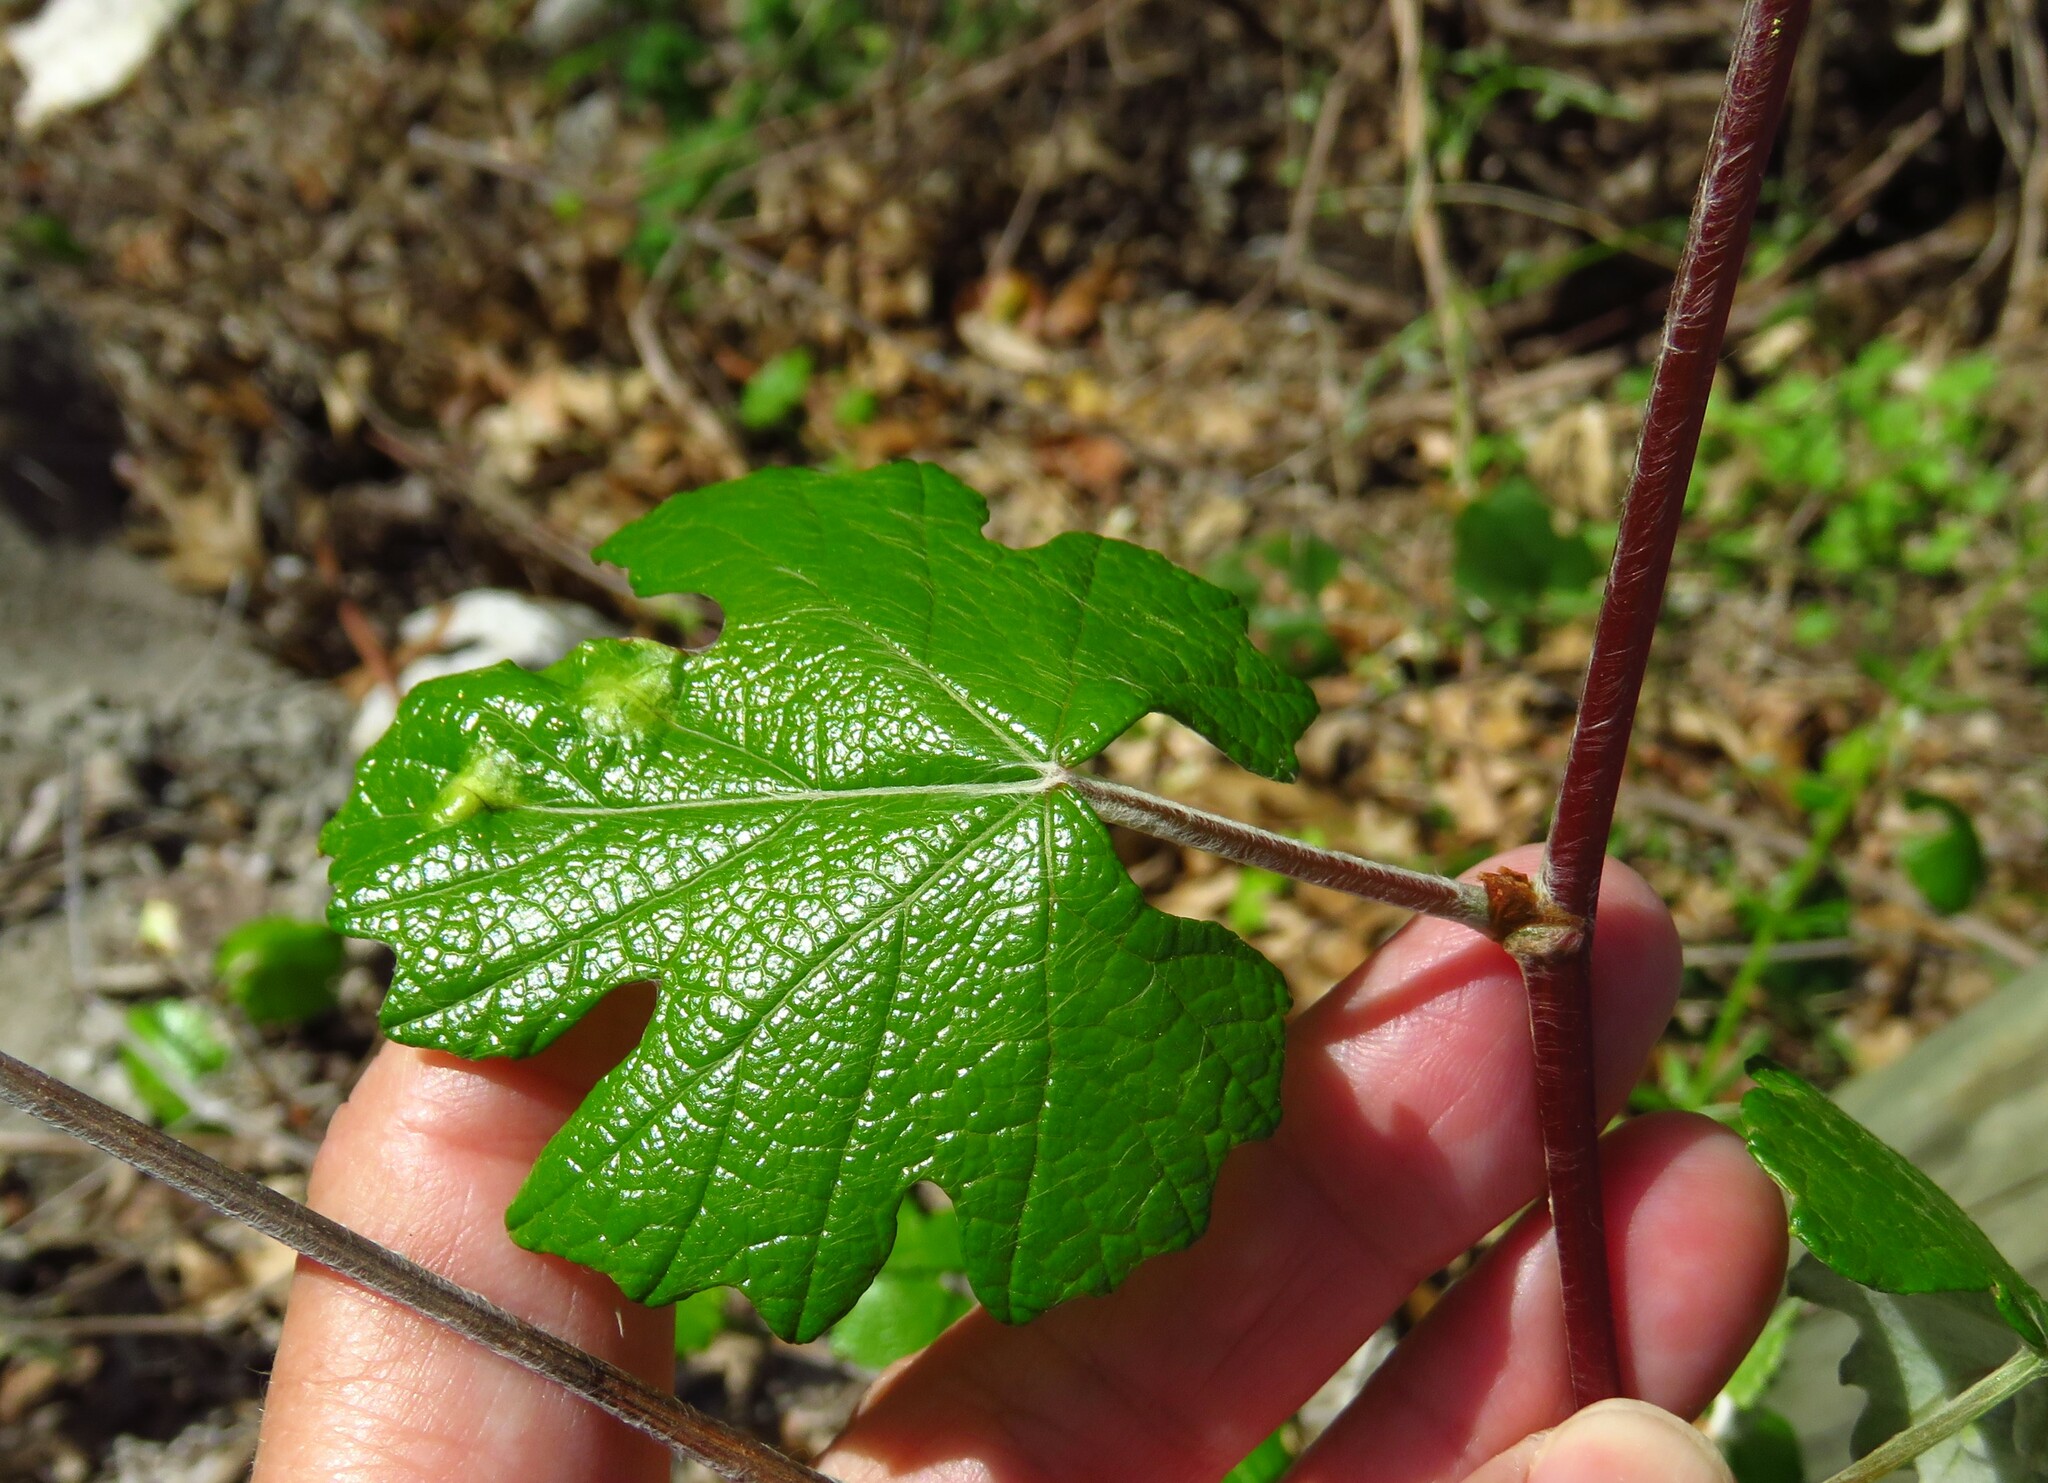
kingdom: Plantae
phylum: Tracheophyta
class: Magnoliopsida
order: Vitales
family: Vitaceae
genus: Vitis
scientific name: Vitis mustangensis
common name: Mustang grape
